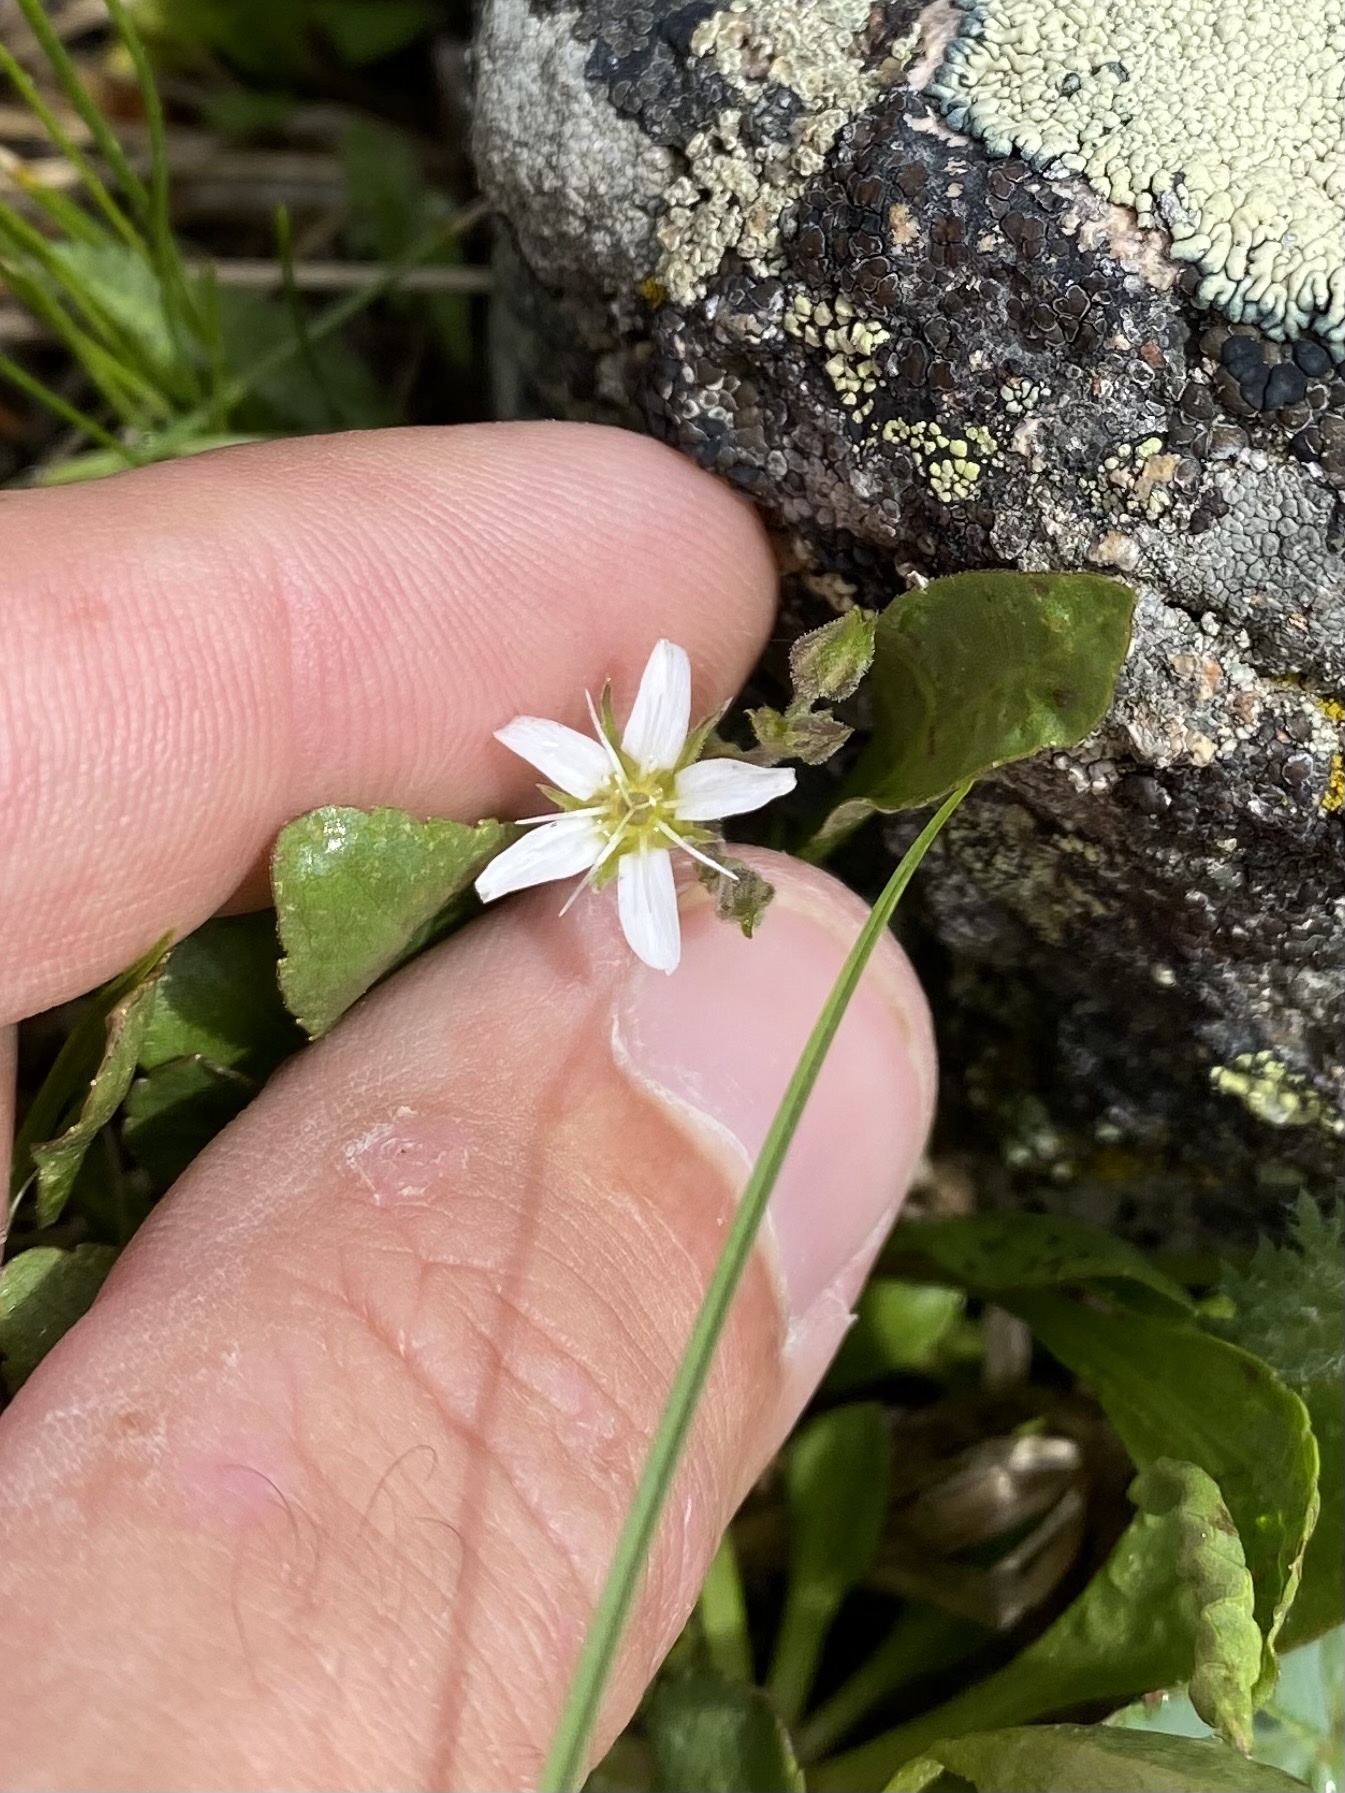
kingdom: Plantae
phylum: Tracheophyta
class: Magnoliopsida
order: Caryophyllales
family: Caryophyllaceae
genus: Eremogone
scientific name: Eremogone fendleri
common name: Fendler's sandwort
